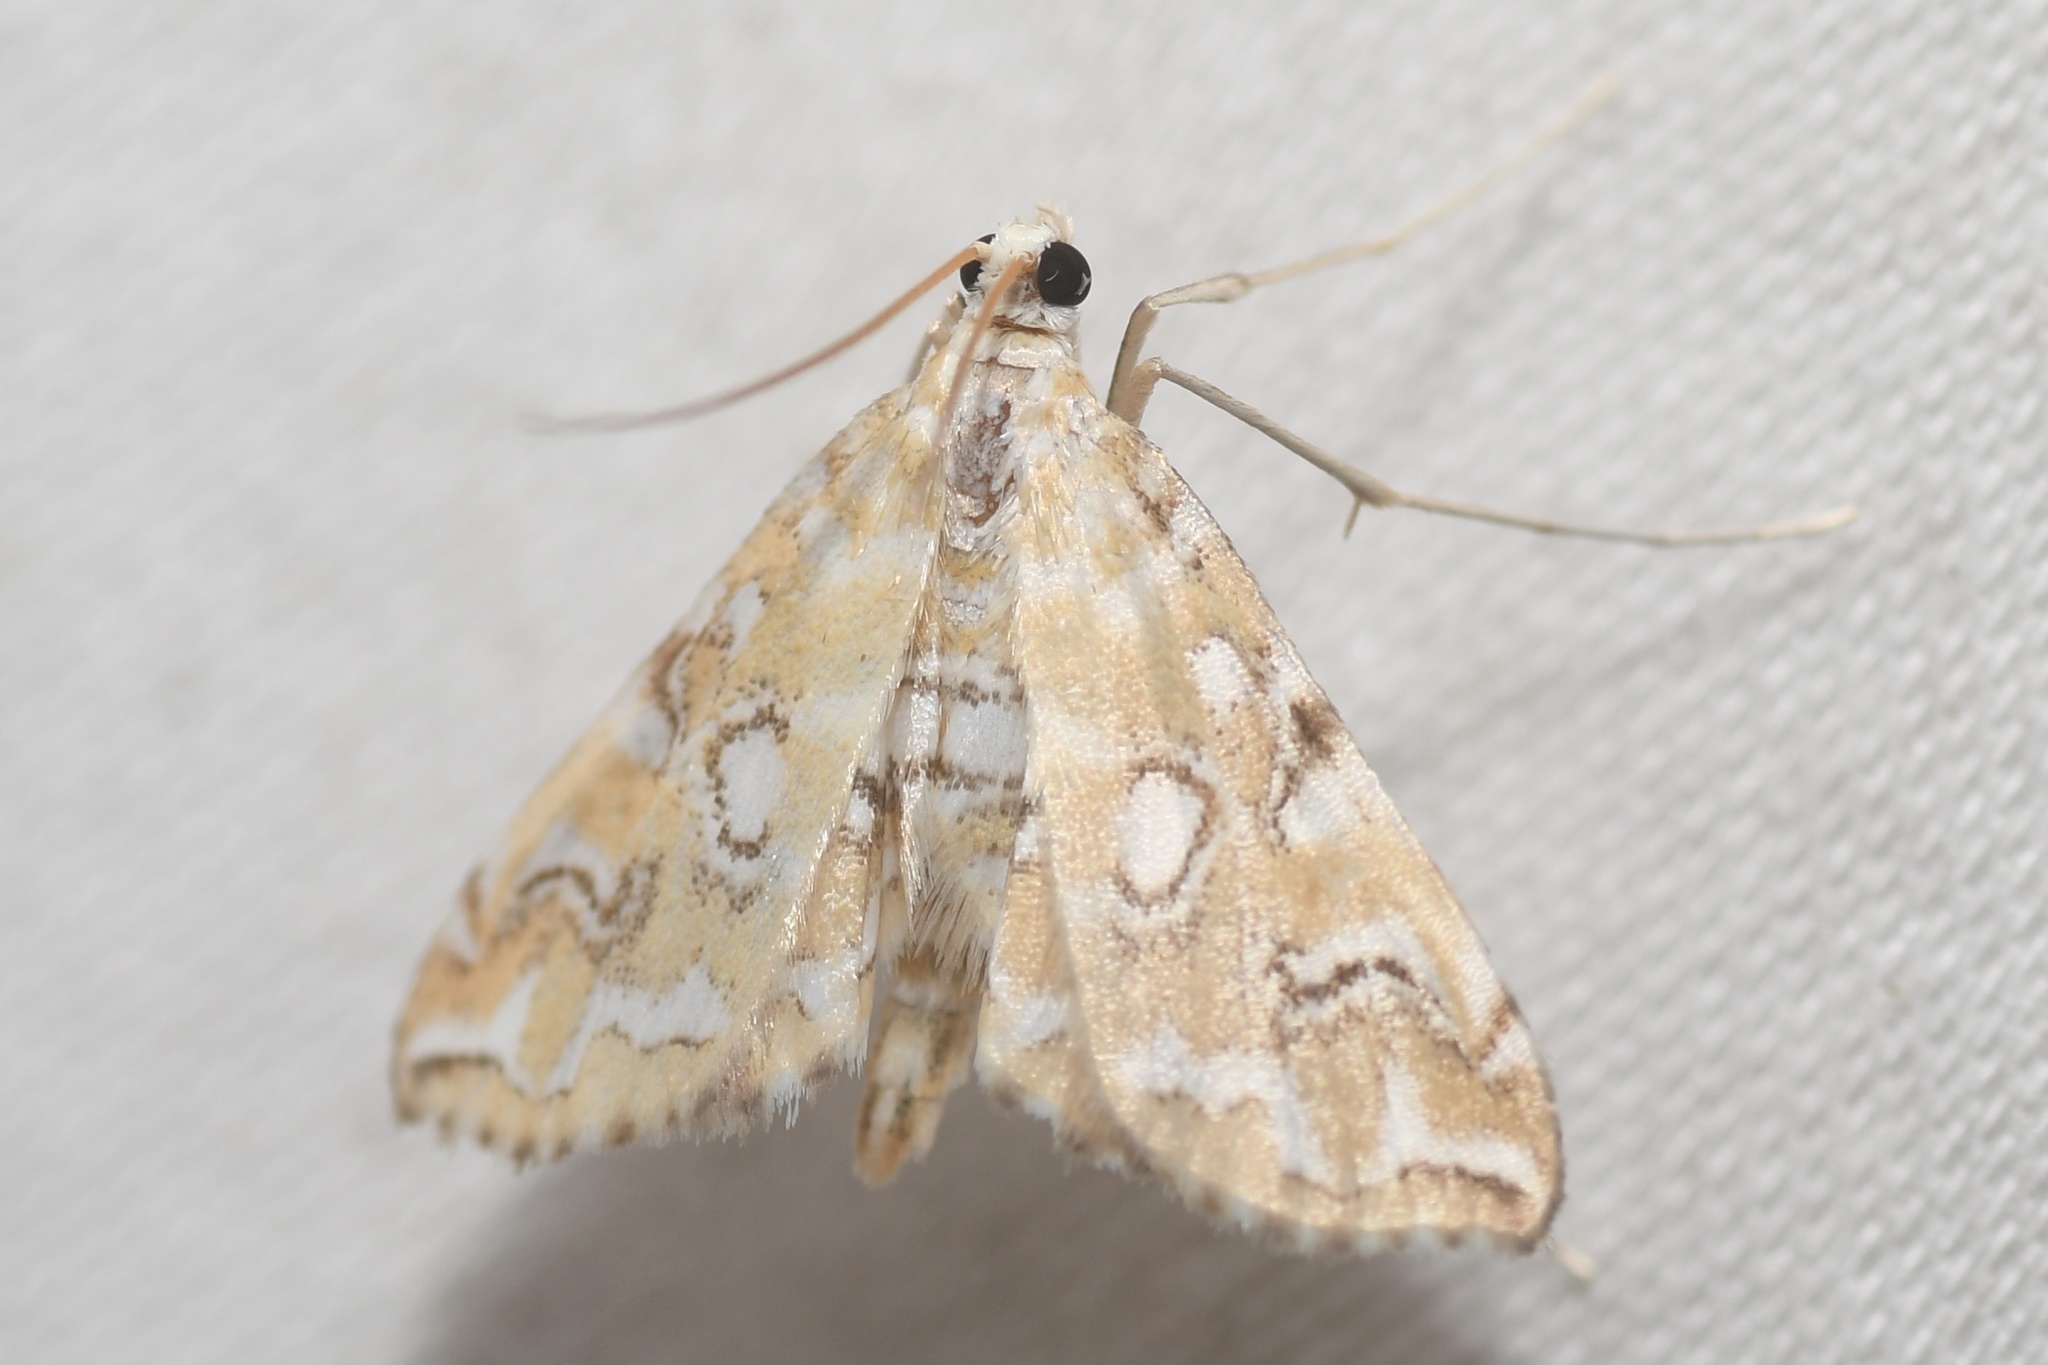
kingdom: Animalia
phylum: Arthropoda
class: Insecta
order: Lepidoptera
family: Crambidae
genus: Elophila
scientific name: Elophila icciusalis
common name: Pondside pyralid moth
